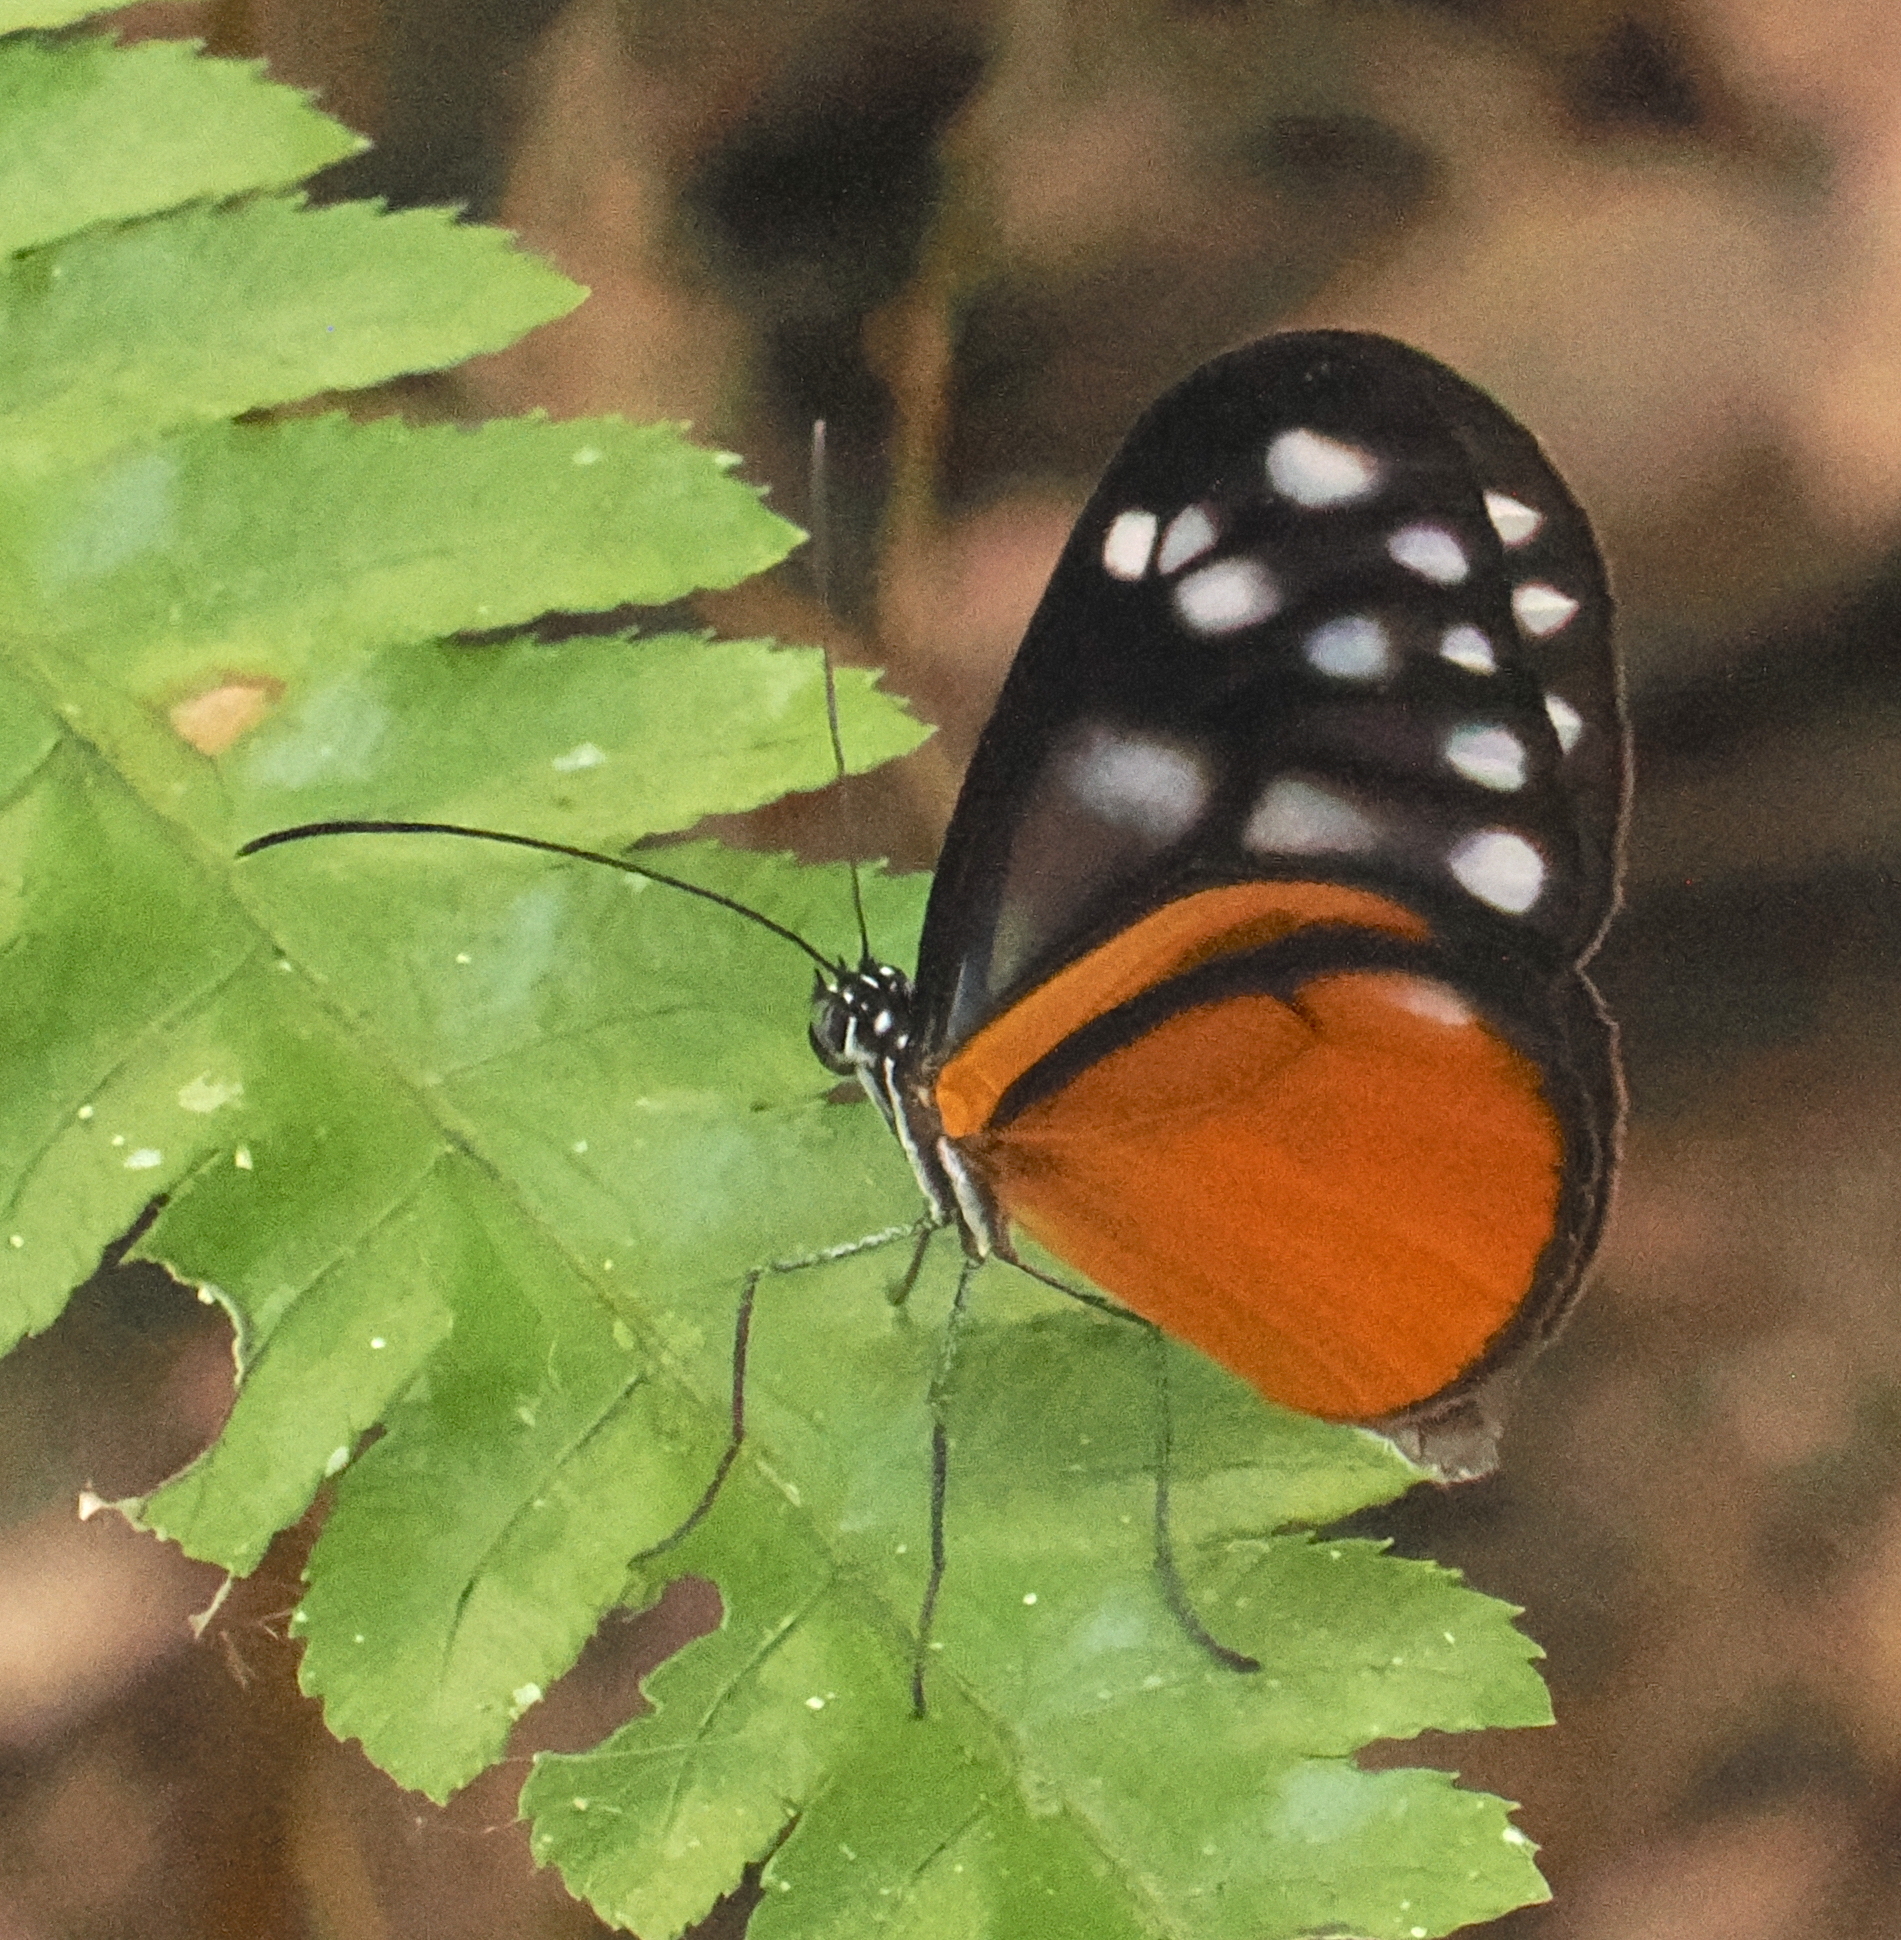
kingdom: Animalia
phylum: Arthropoda
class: Insecta
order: Lepidoptera
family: Nymphalidae
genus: Hypoleria
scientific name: Hypoleria lavinia
